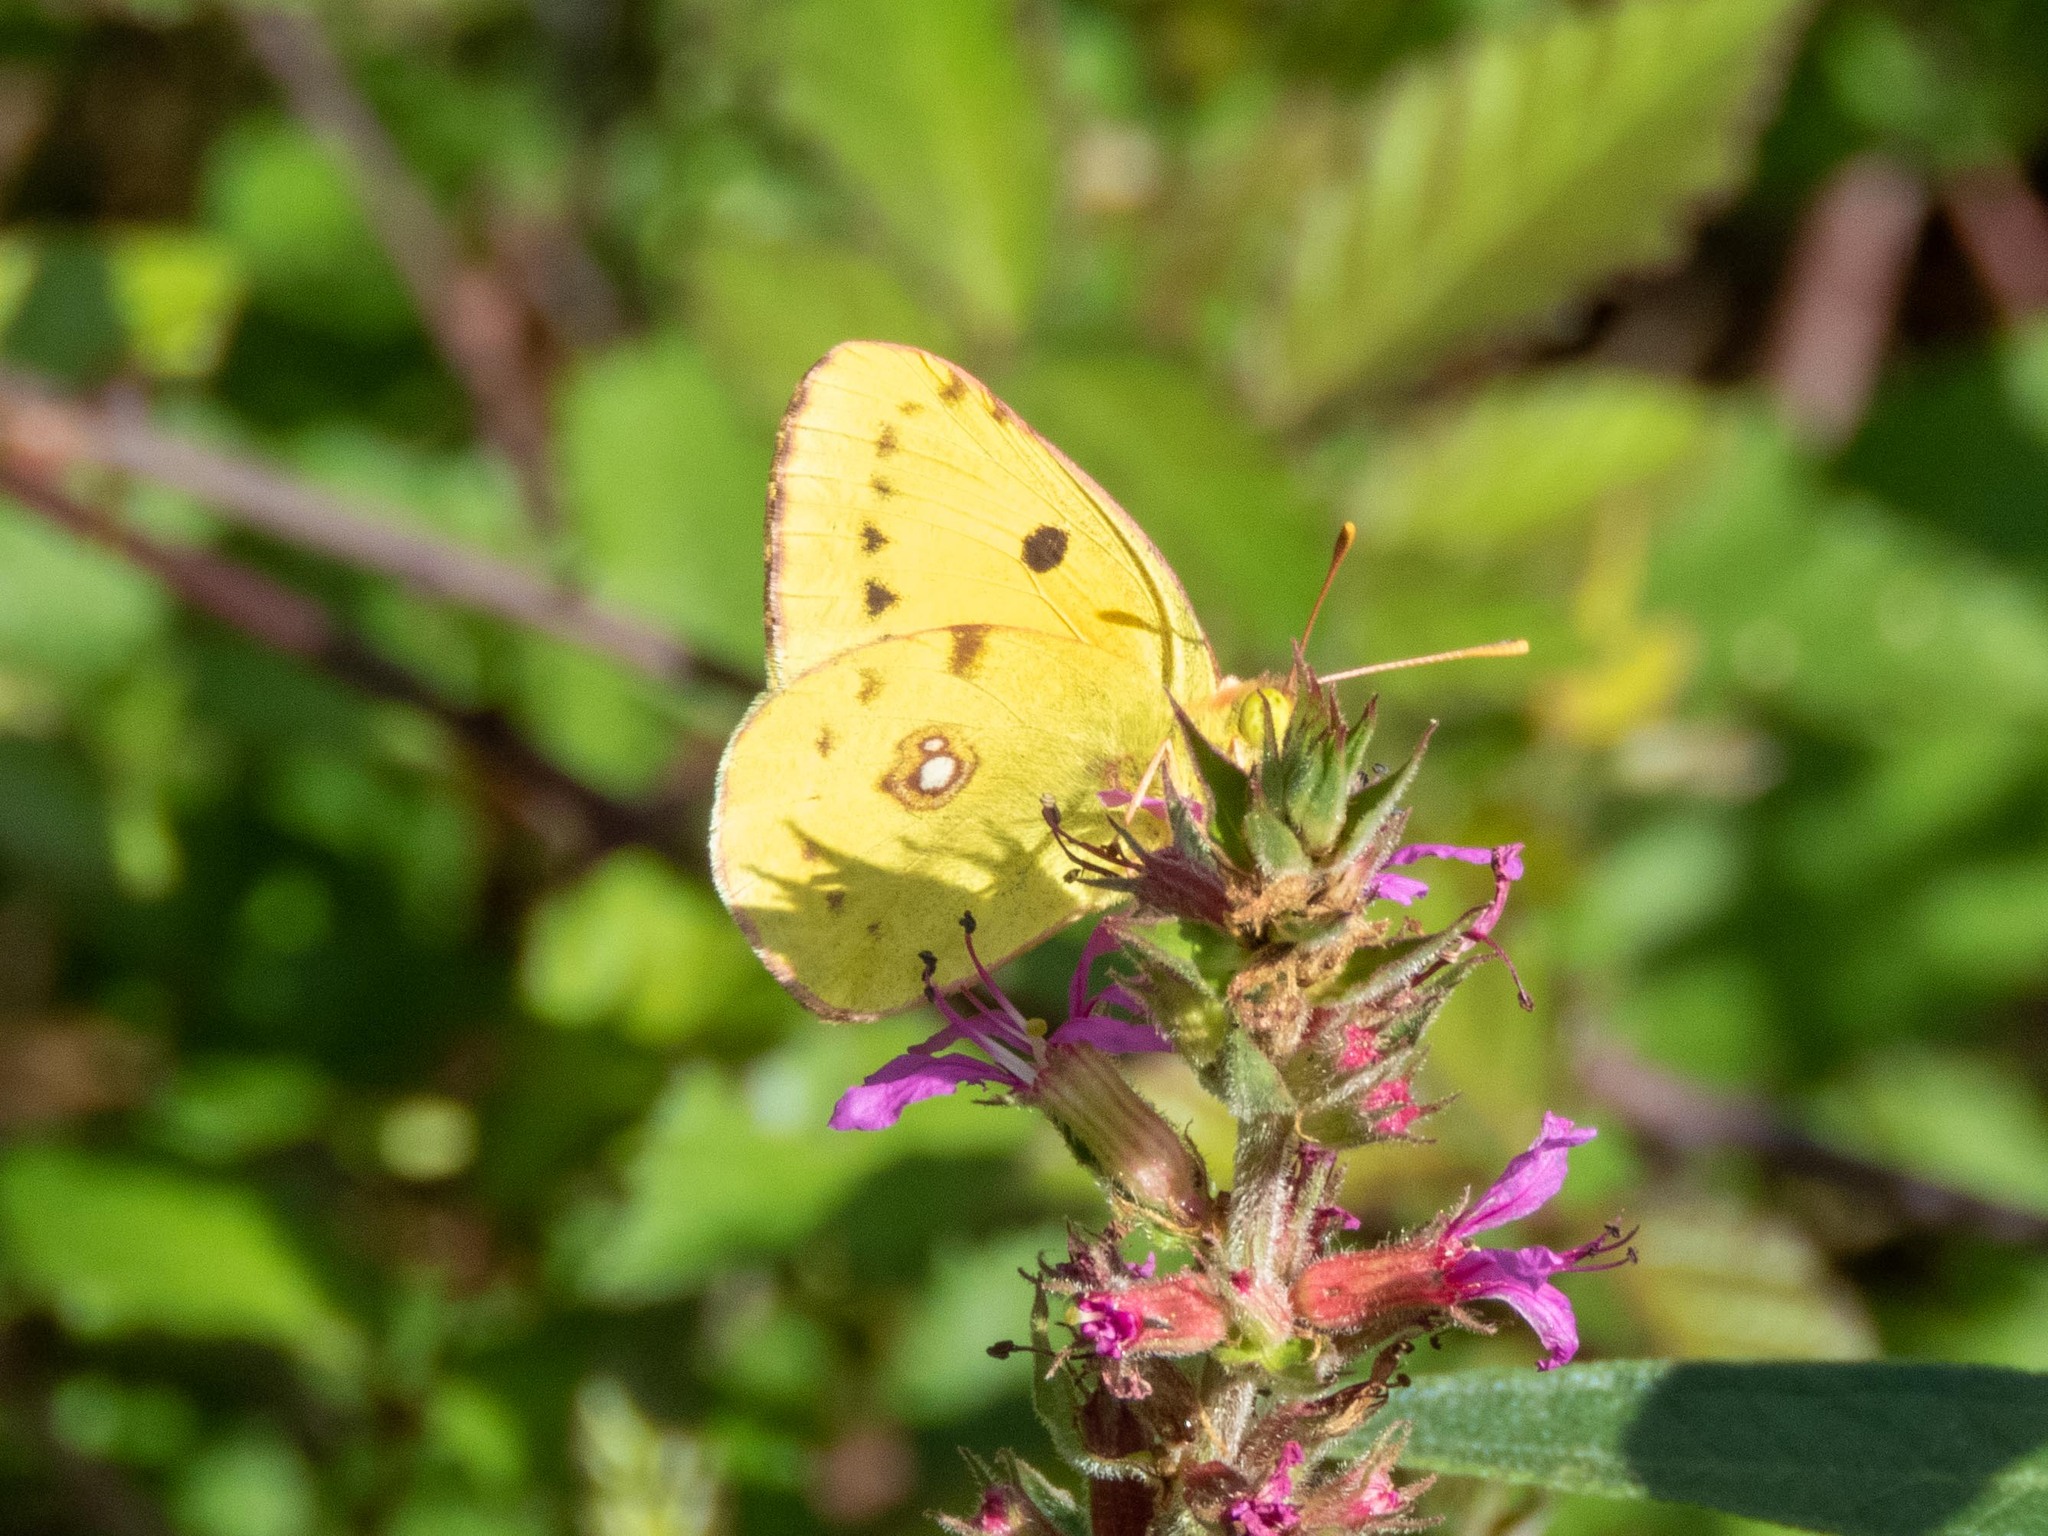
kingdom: Animalia
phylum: Arthropoda
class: Insecta
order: Lepidoptera
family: Pieridae
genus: Colias
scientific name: Colias croceus
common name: Clouded yellow
